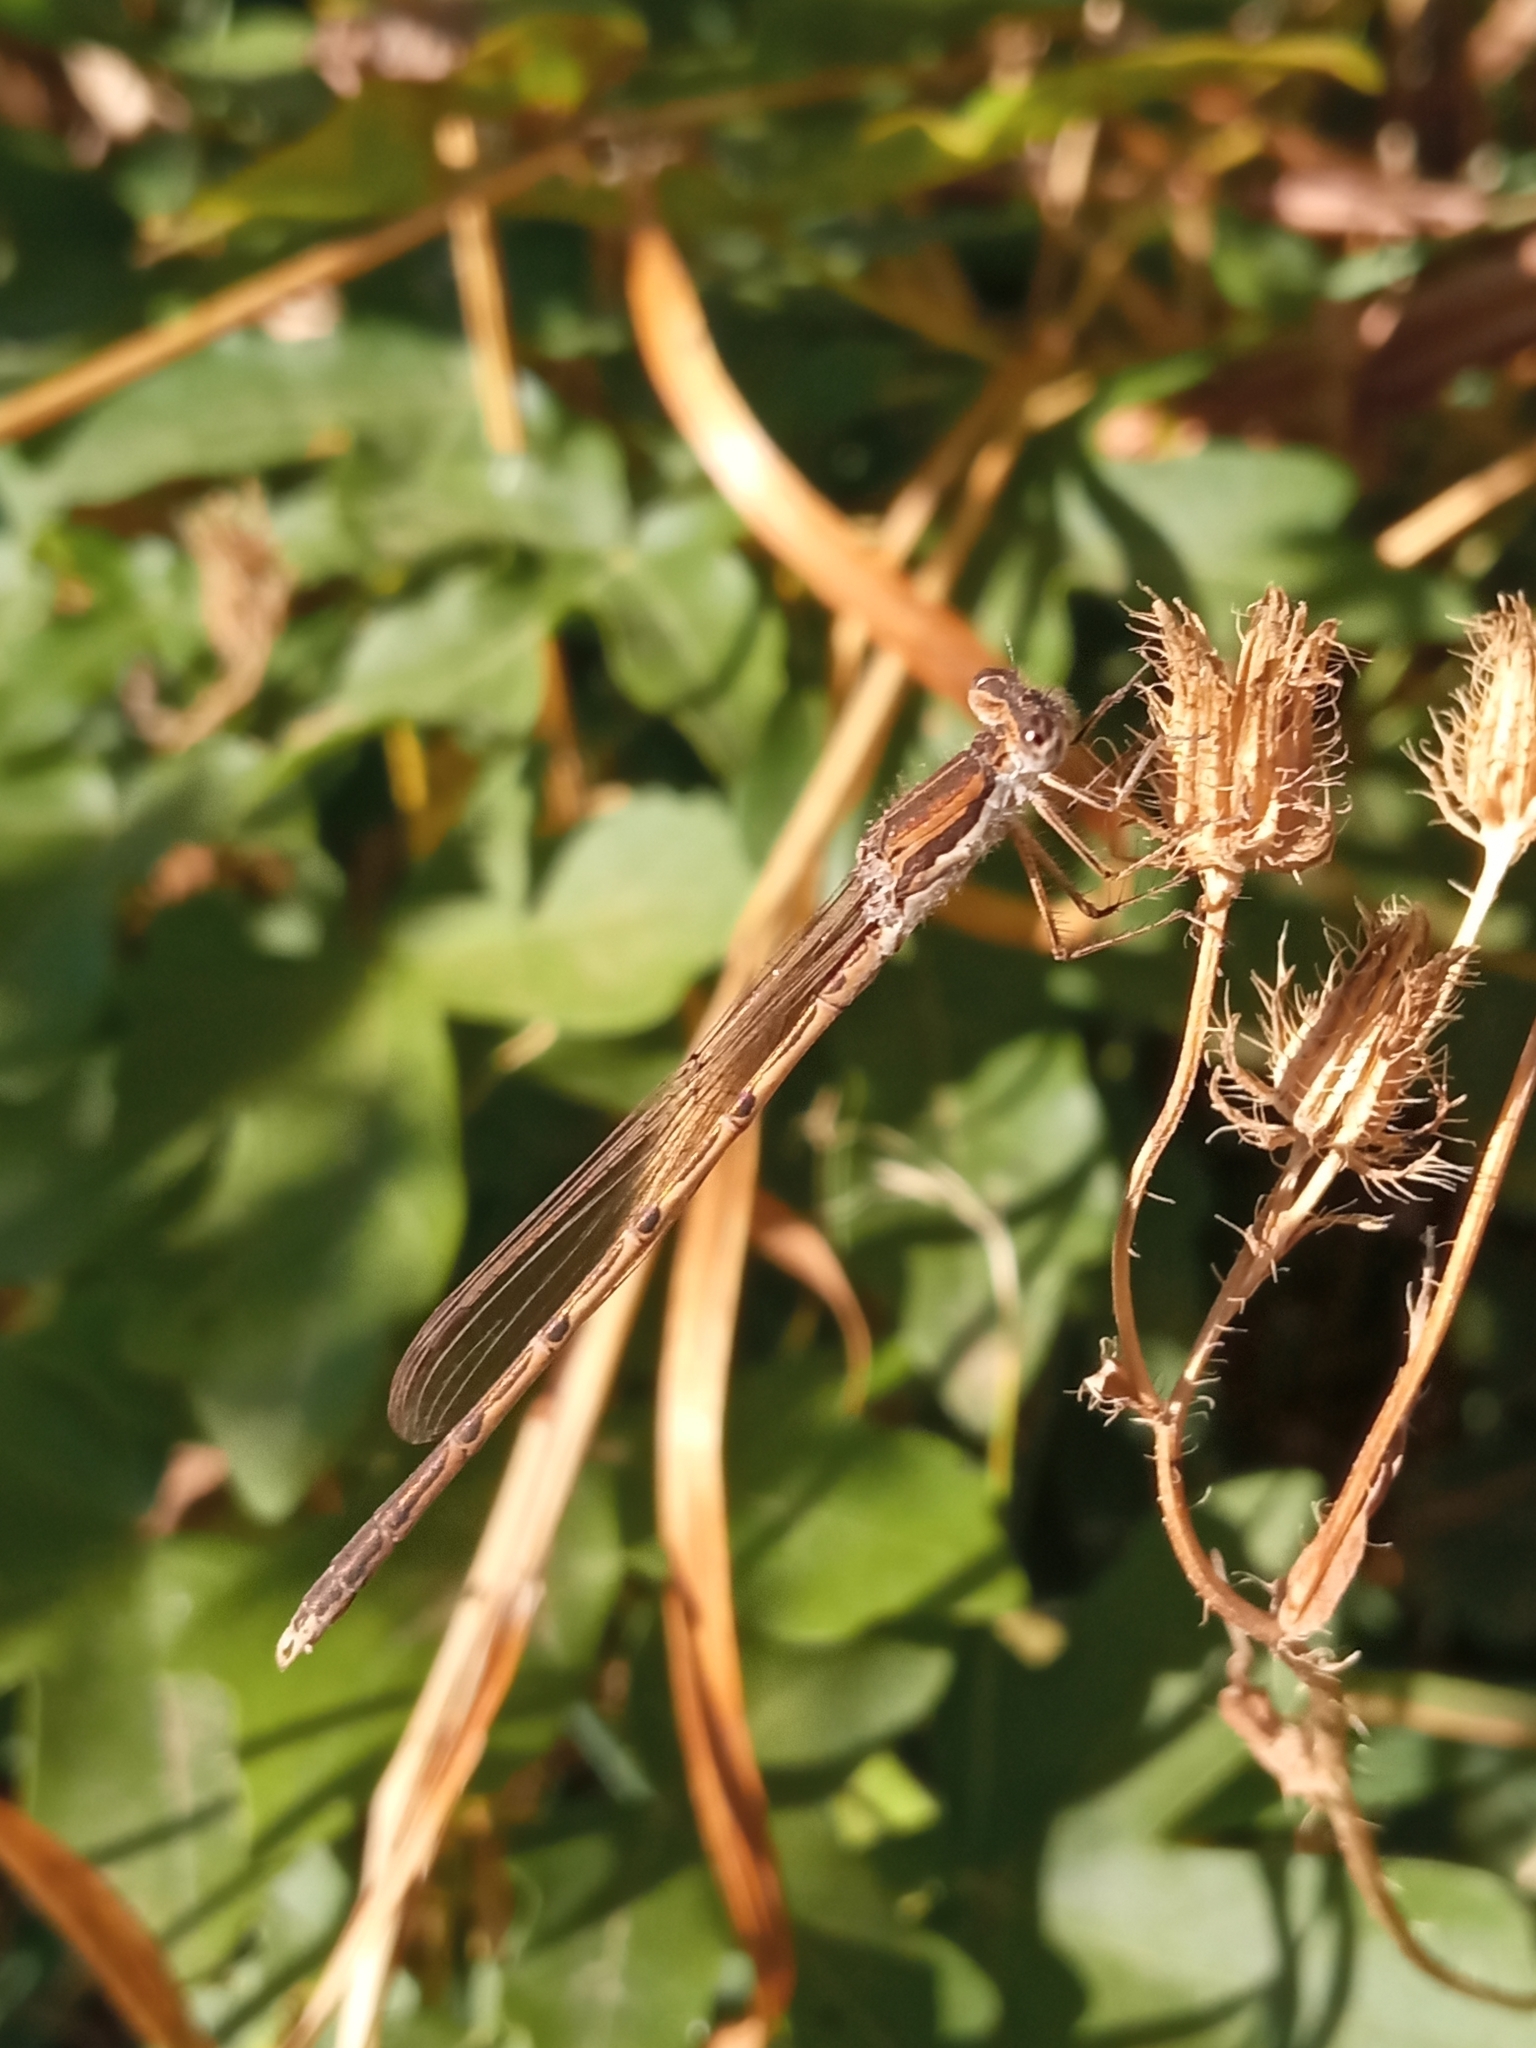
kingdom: Animalia
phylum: Arthropoda
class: Insecta
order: Odonata
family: Lestidae
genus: Sympecma
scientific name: Sympecma fusca
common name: Common winter damsel
